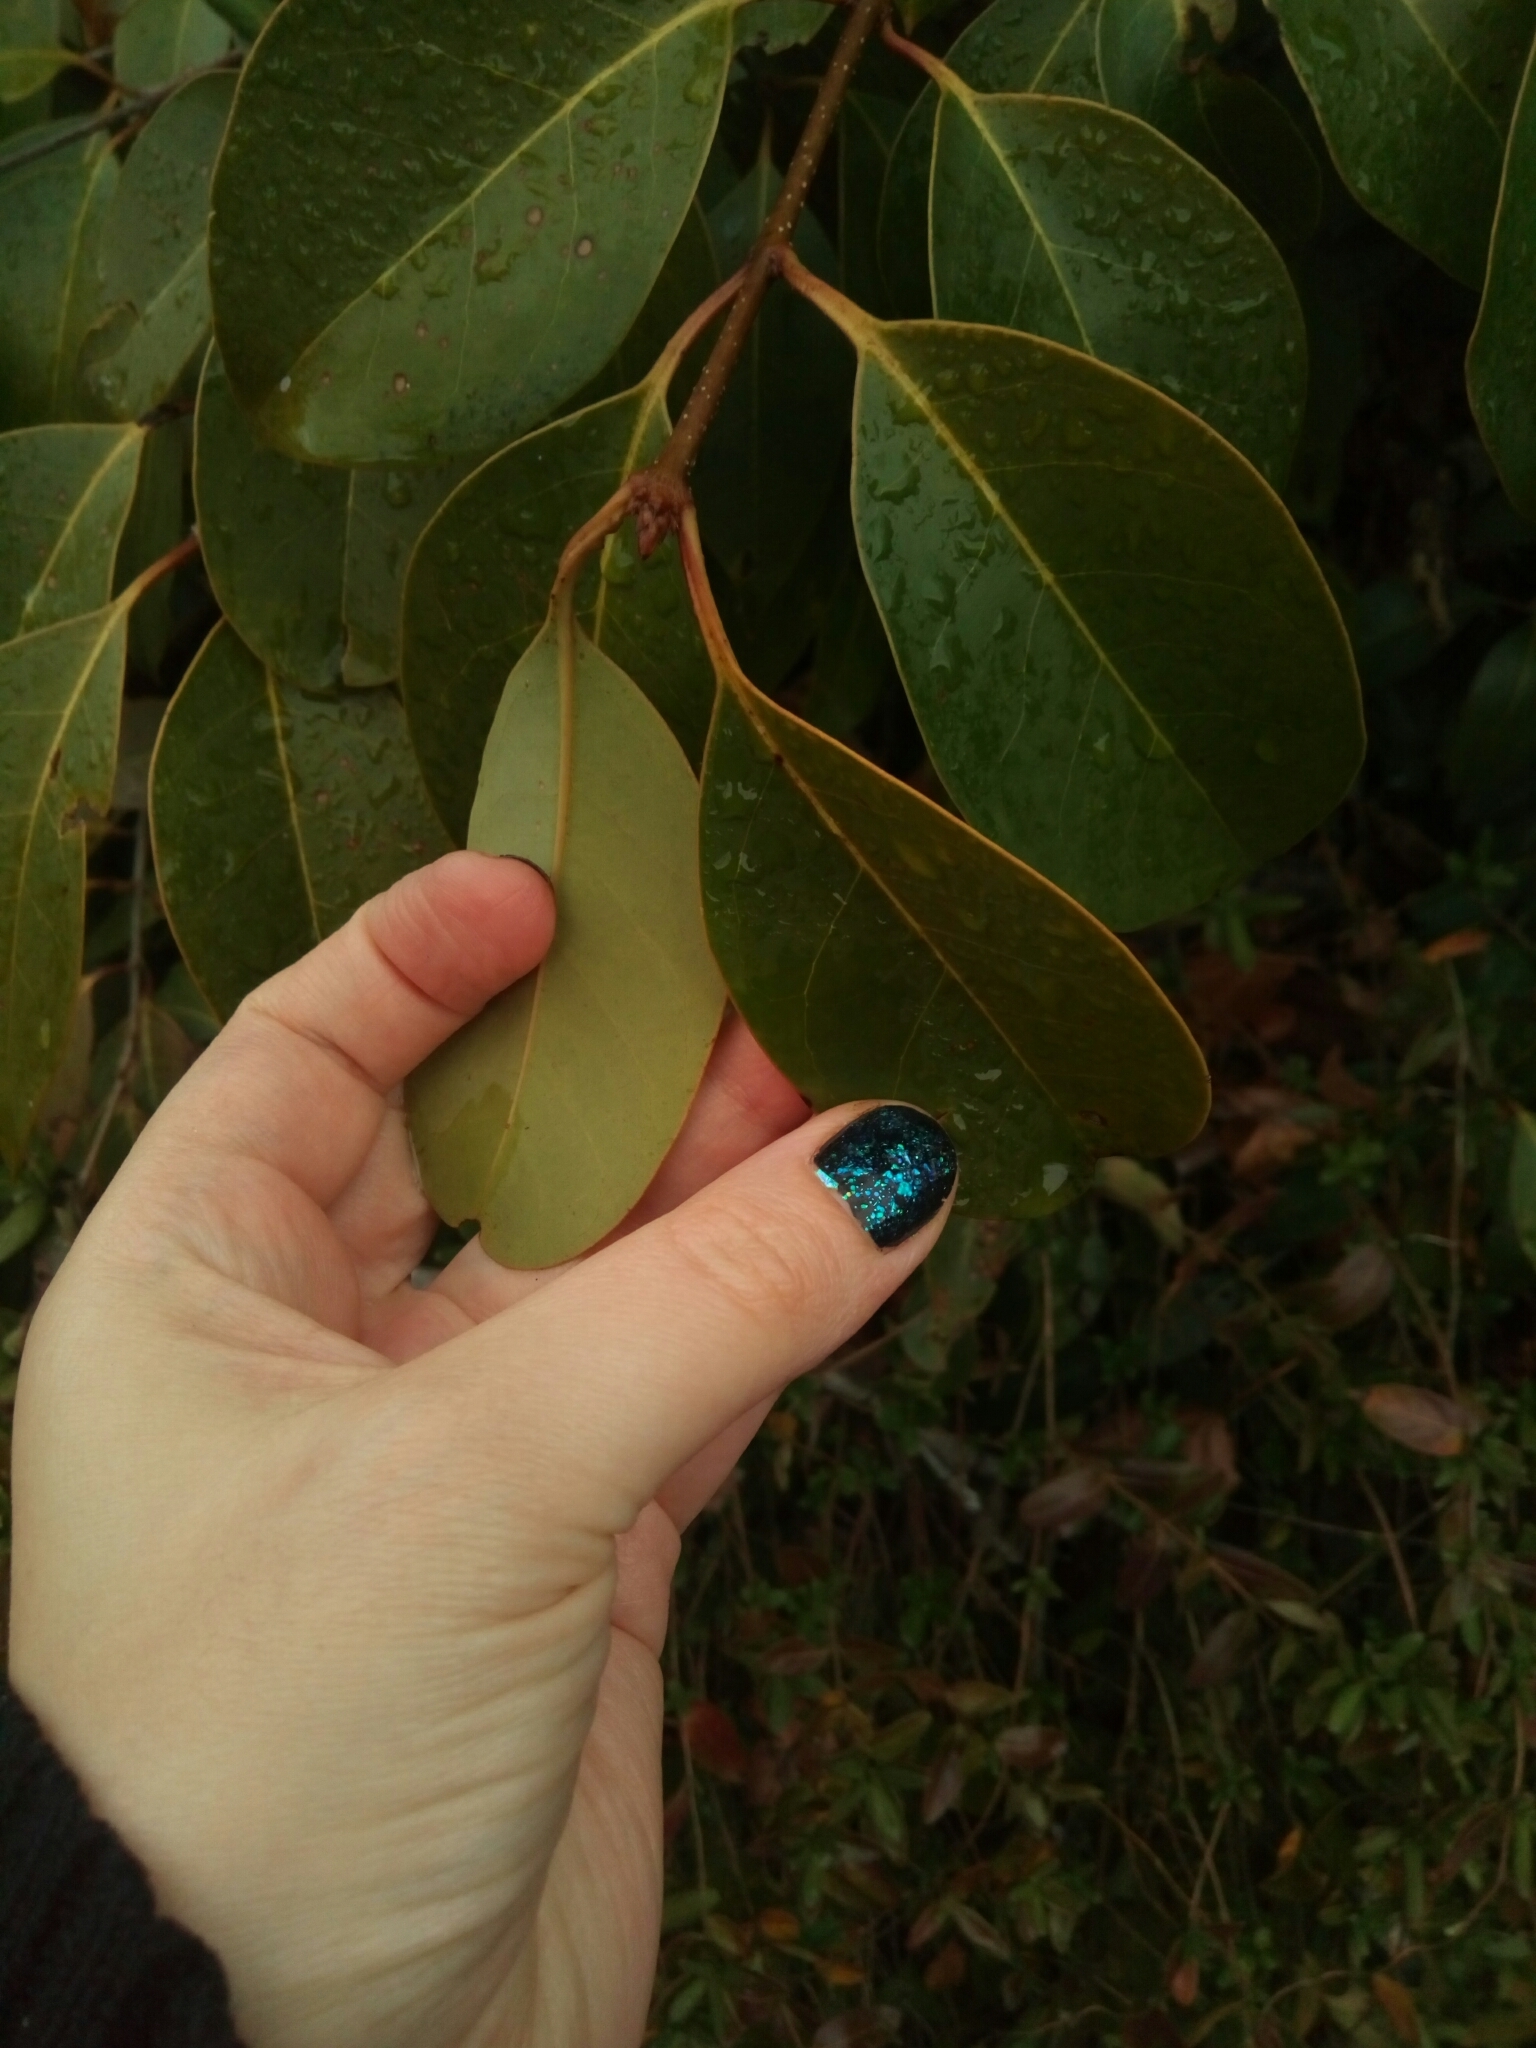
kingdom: Plantae
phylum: Tracheophyta
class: Magnoliopsida
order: Lamiales
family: Oleaceae
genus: Ligustrum
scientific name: Ligustrum lucidum
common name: Glossy privet
